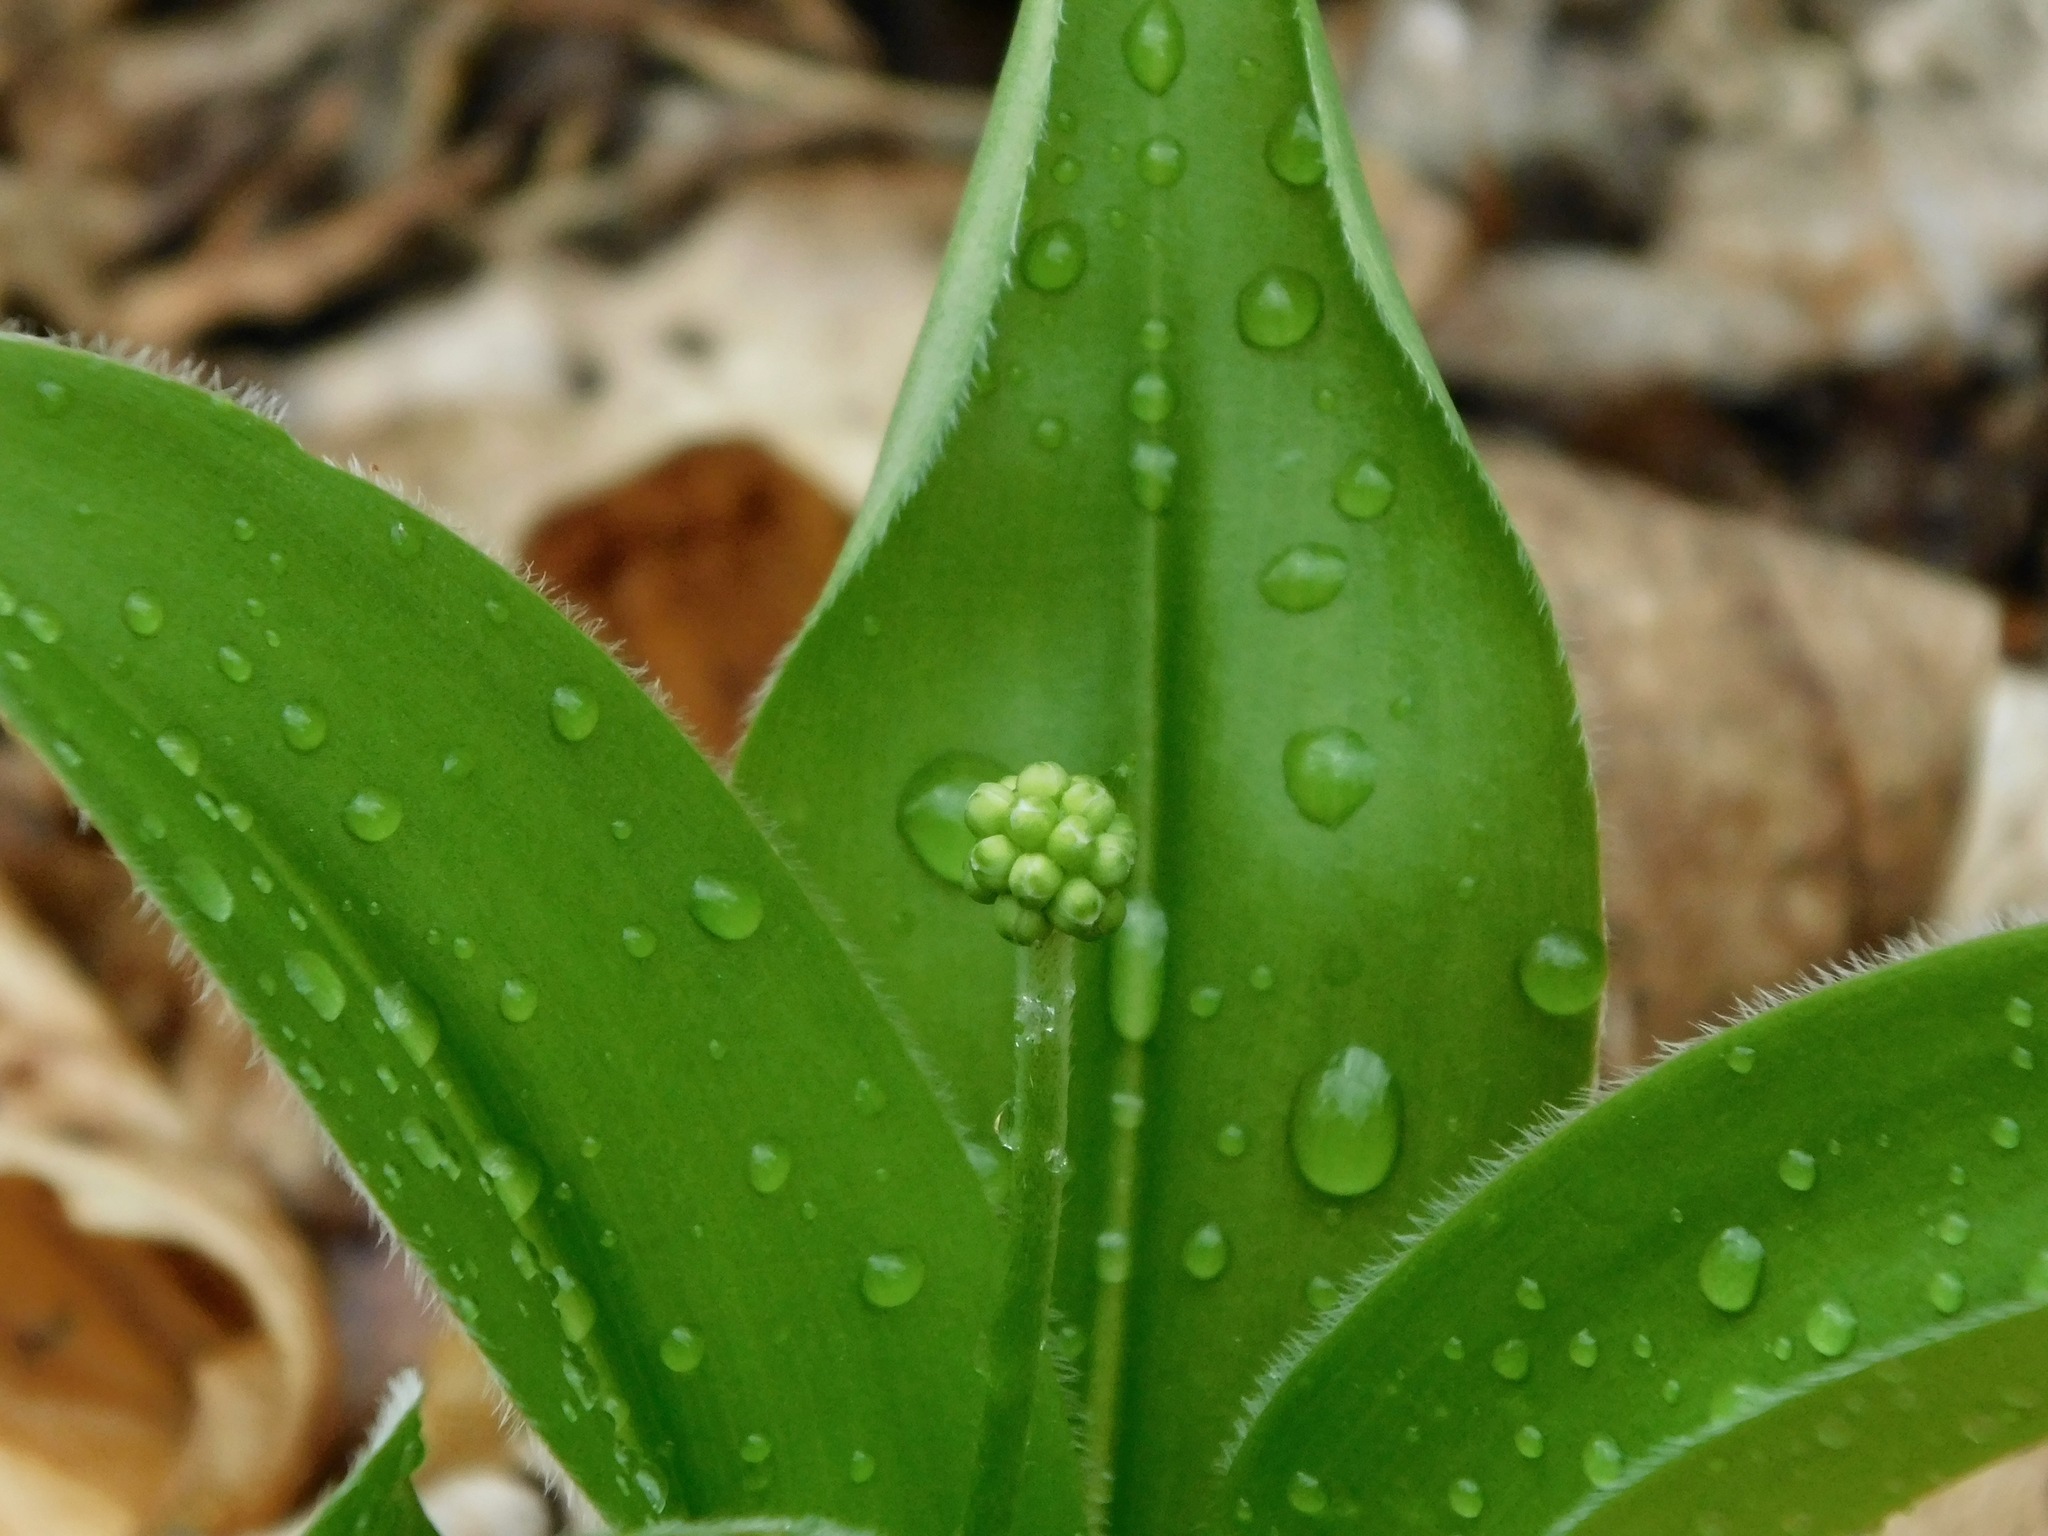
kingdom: Plantae
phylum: Tracheophyta
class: Liliopsida
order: Liliales
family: Liliaceae
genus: Clintonia
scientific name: Clintonia umbellulata
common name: Speckle wood-lily
